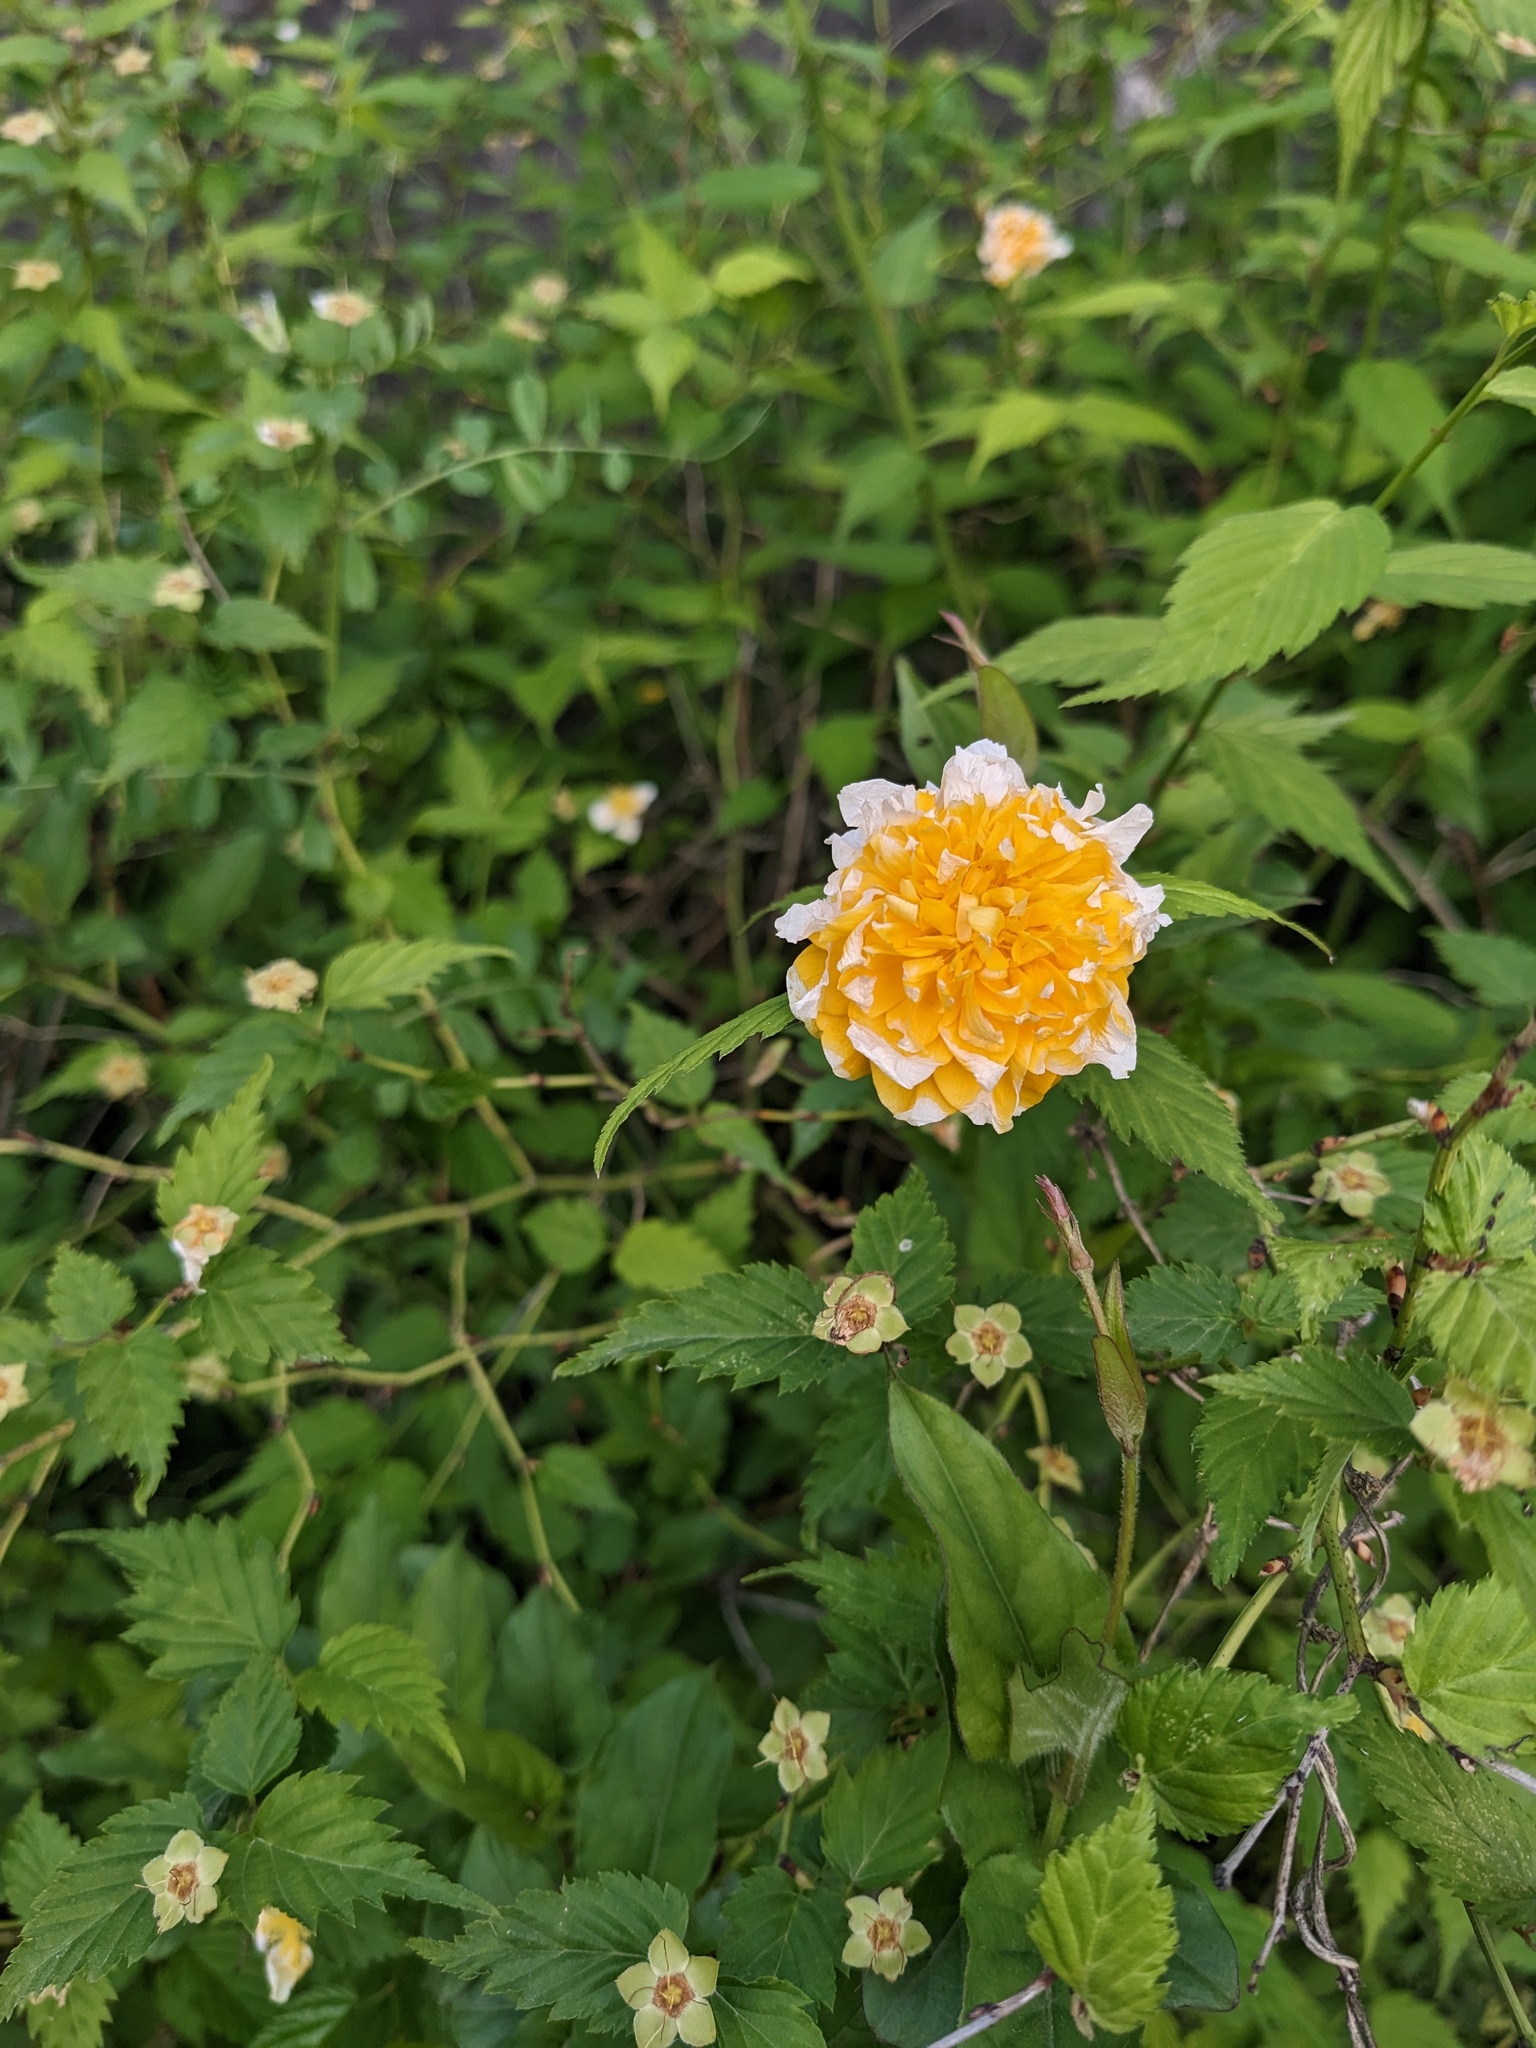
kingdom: Plantae
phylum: Tracheophyta
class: Magnoliopsida
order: Rosales
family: Rosaceae
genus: Kerria
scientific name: Kerria japonica
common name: Japanese kerria
